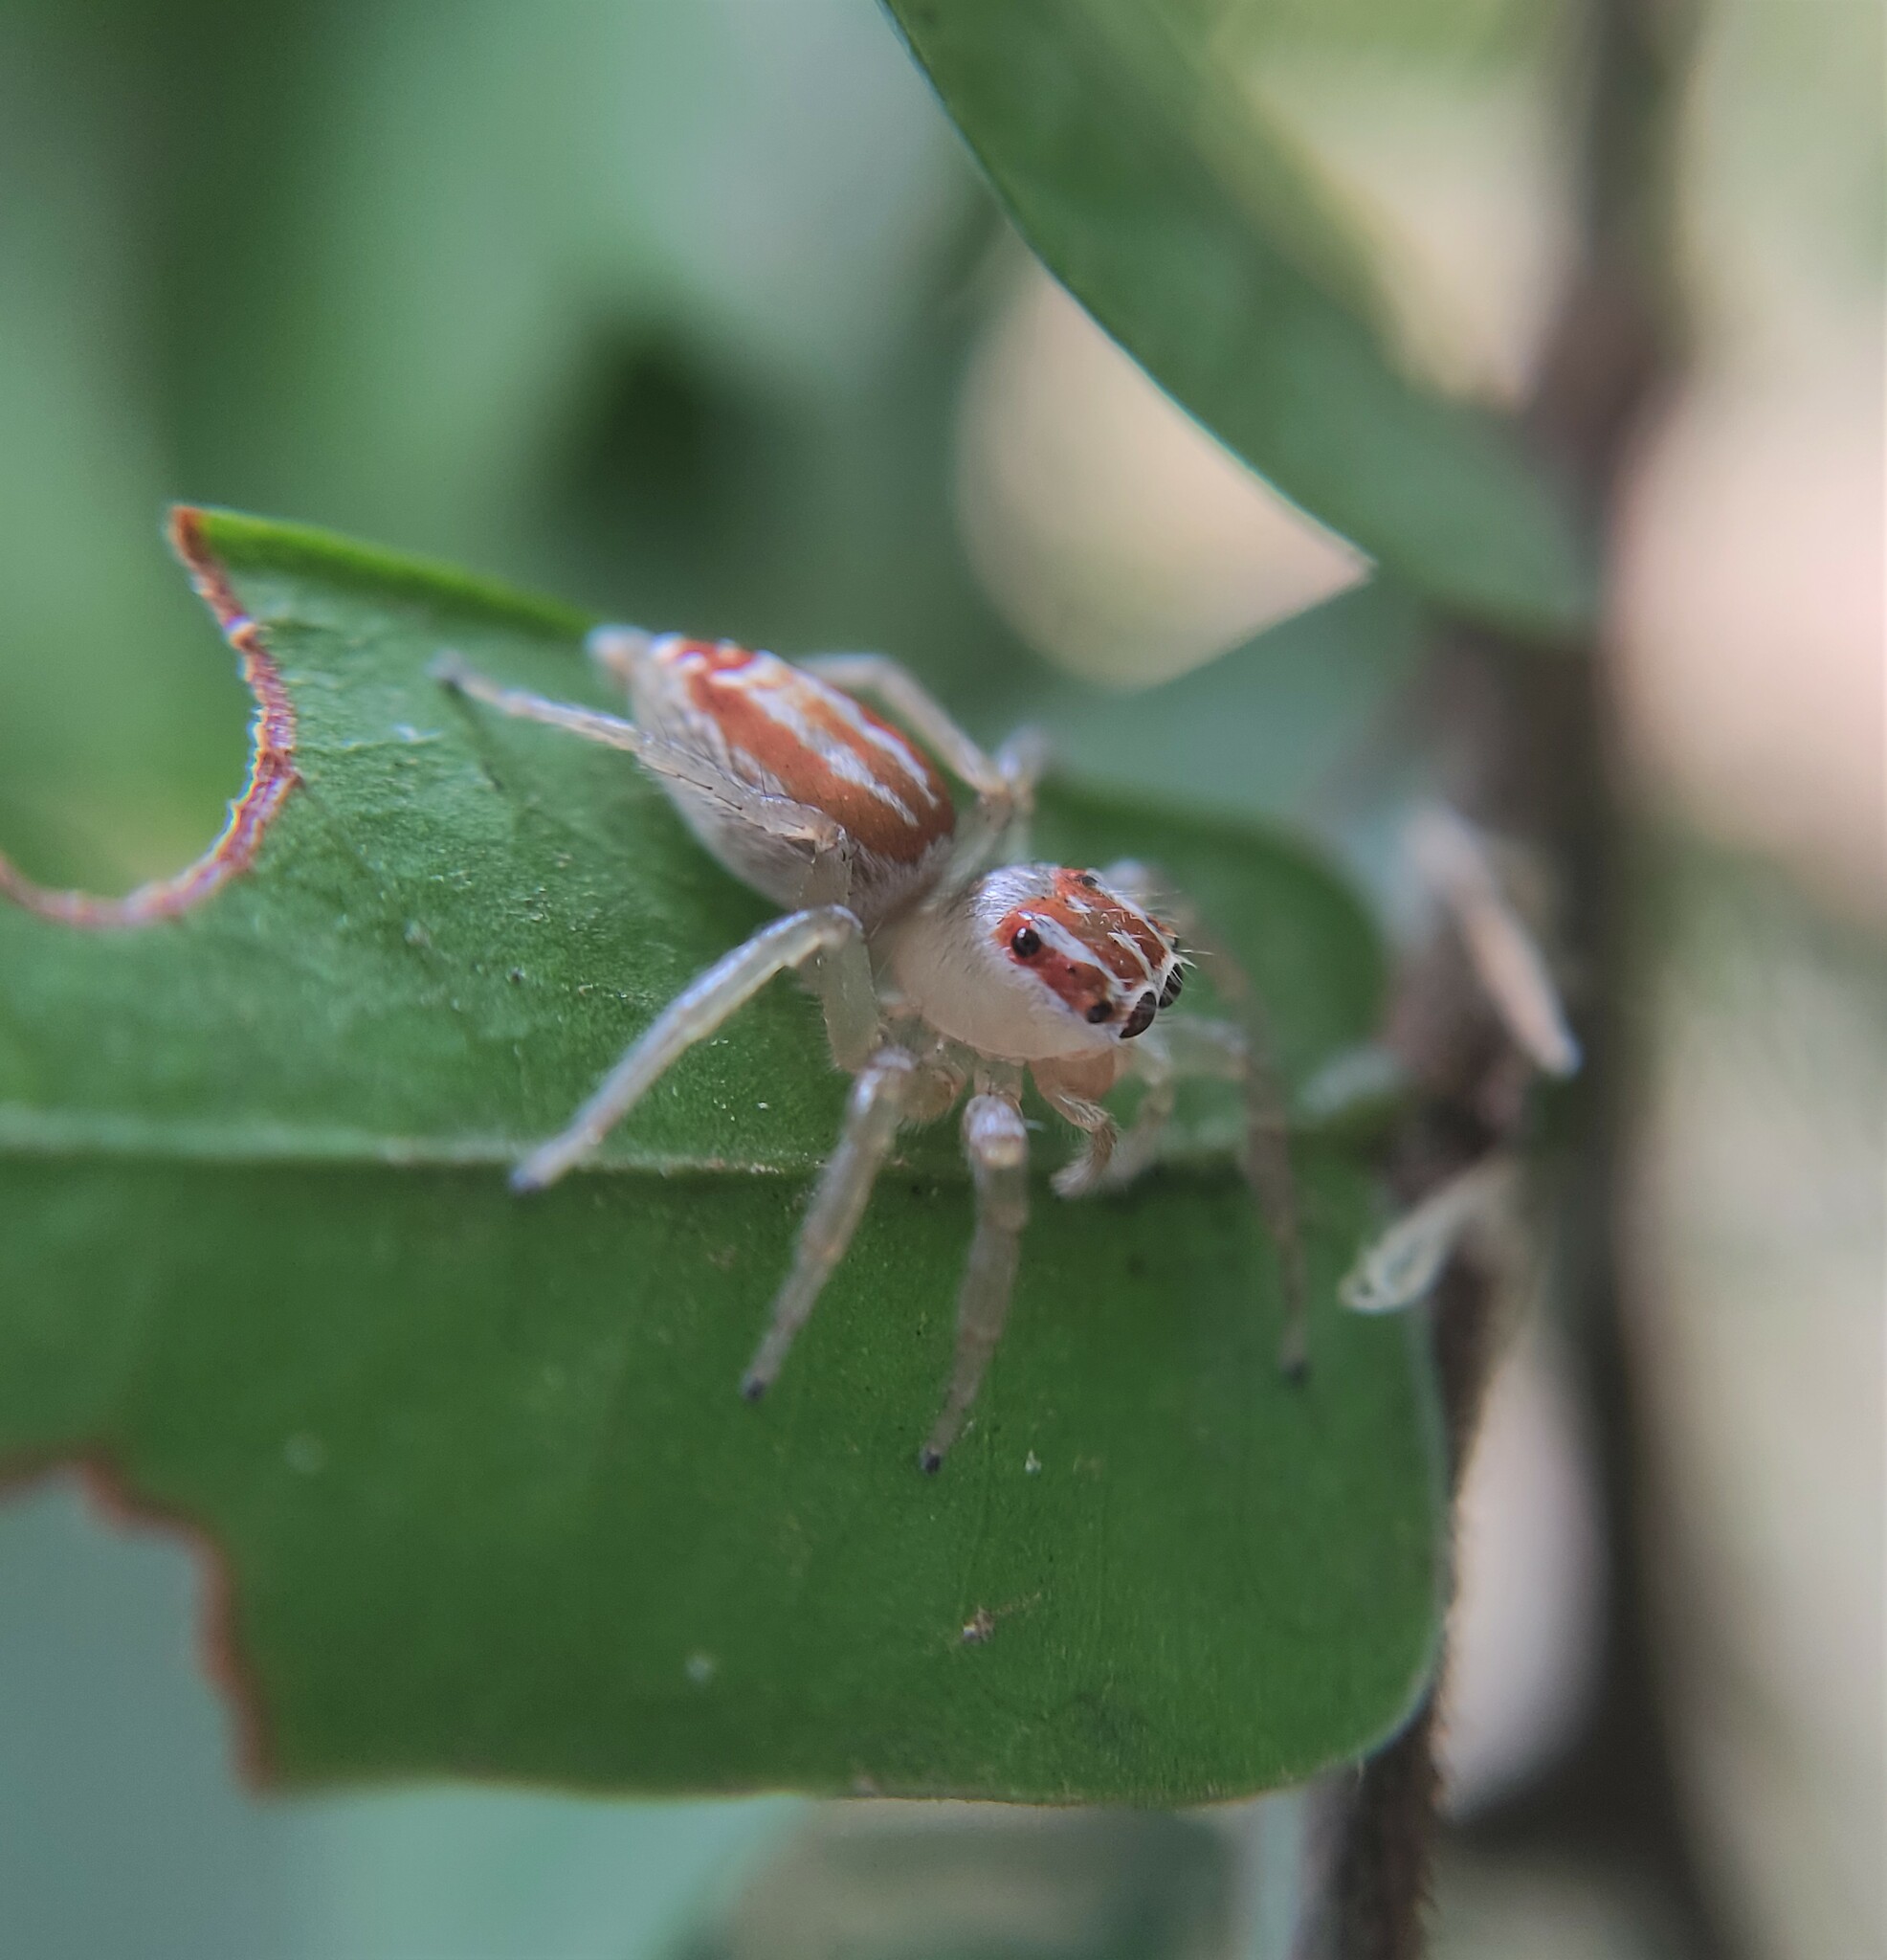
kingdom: Animalia
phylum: Arthropoda
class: Arachnida
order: Araneae
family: Salticidae
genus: Chira
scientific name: Chira simoni
